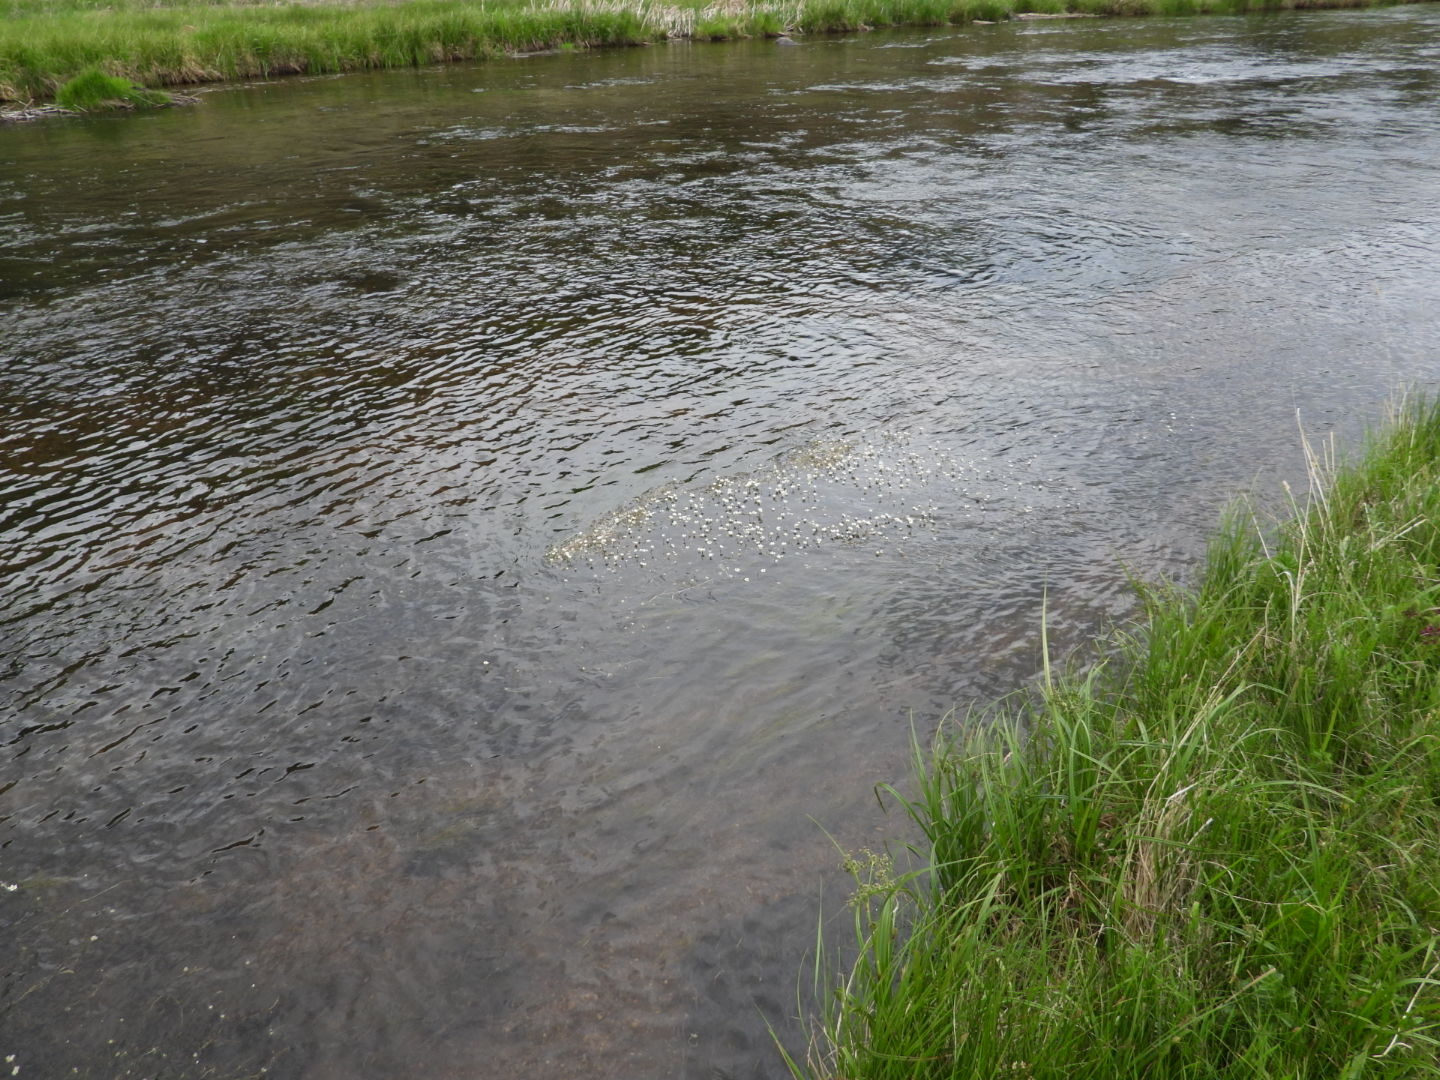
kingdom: Plantae
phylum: Tracheophyta
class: Magnoliopsida
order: Ranunculales
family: Ranunculaceae
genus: Ranunculus
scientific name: Ranunculus aquatilis
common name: Common water-crowfoot
